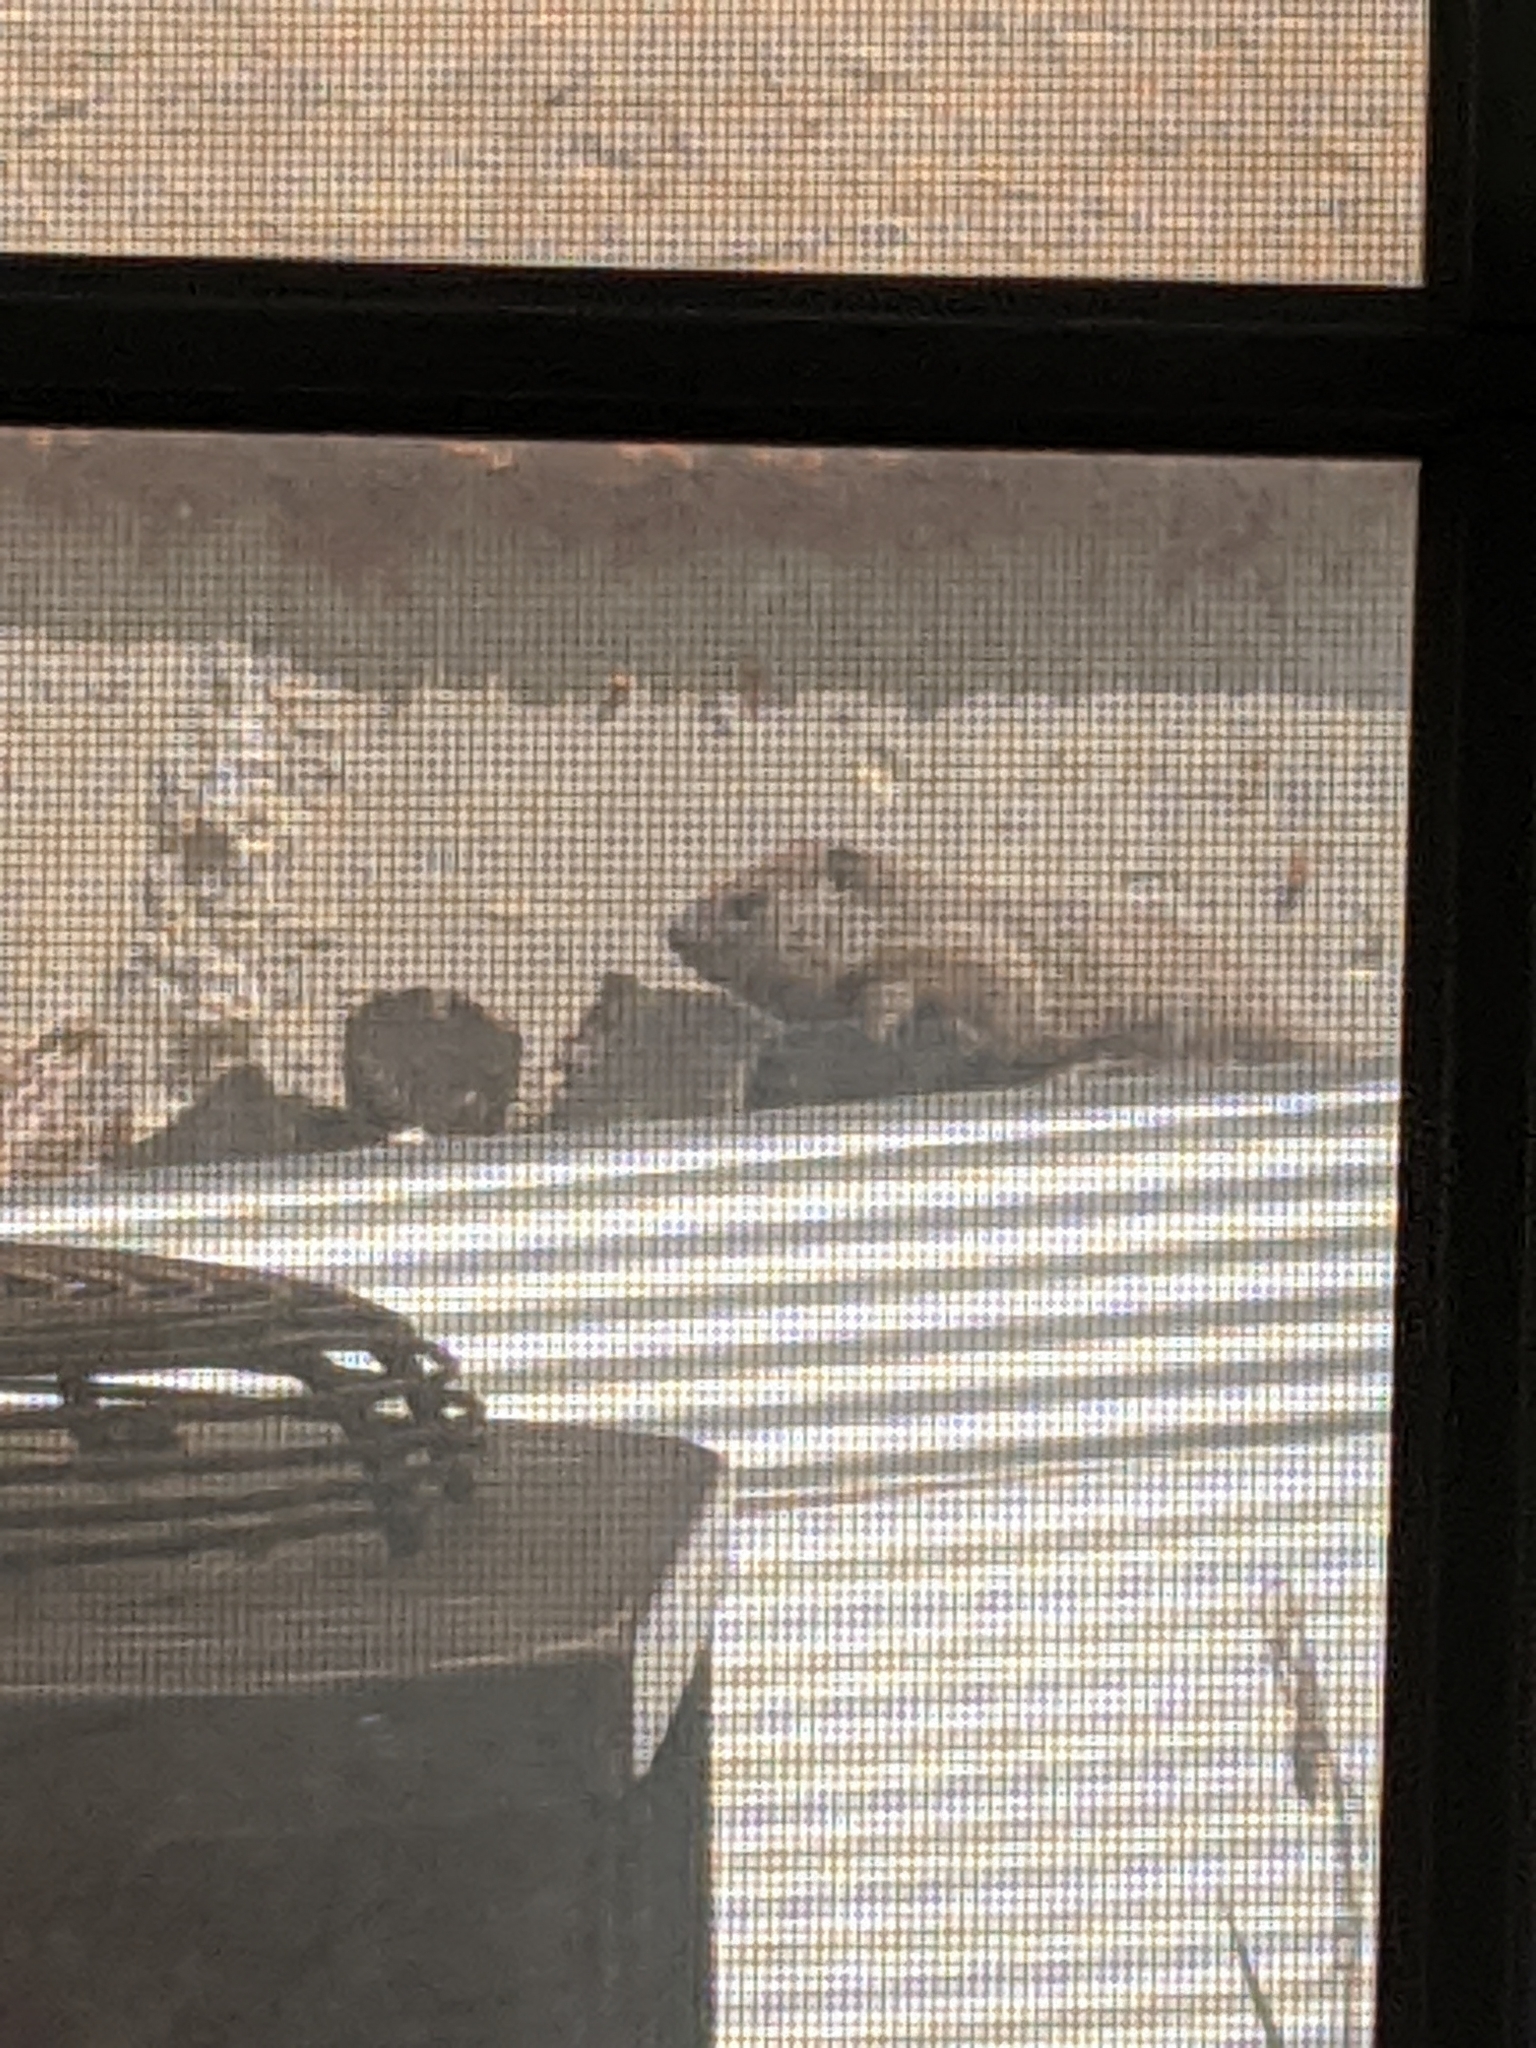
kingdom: Animalia
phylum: Chordata
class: Mammalia
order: Rodentia
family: Sciuridae
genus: Marmota
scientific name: Marmota monax
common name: Groundhog
